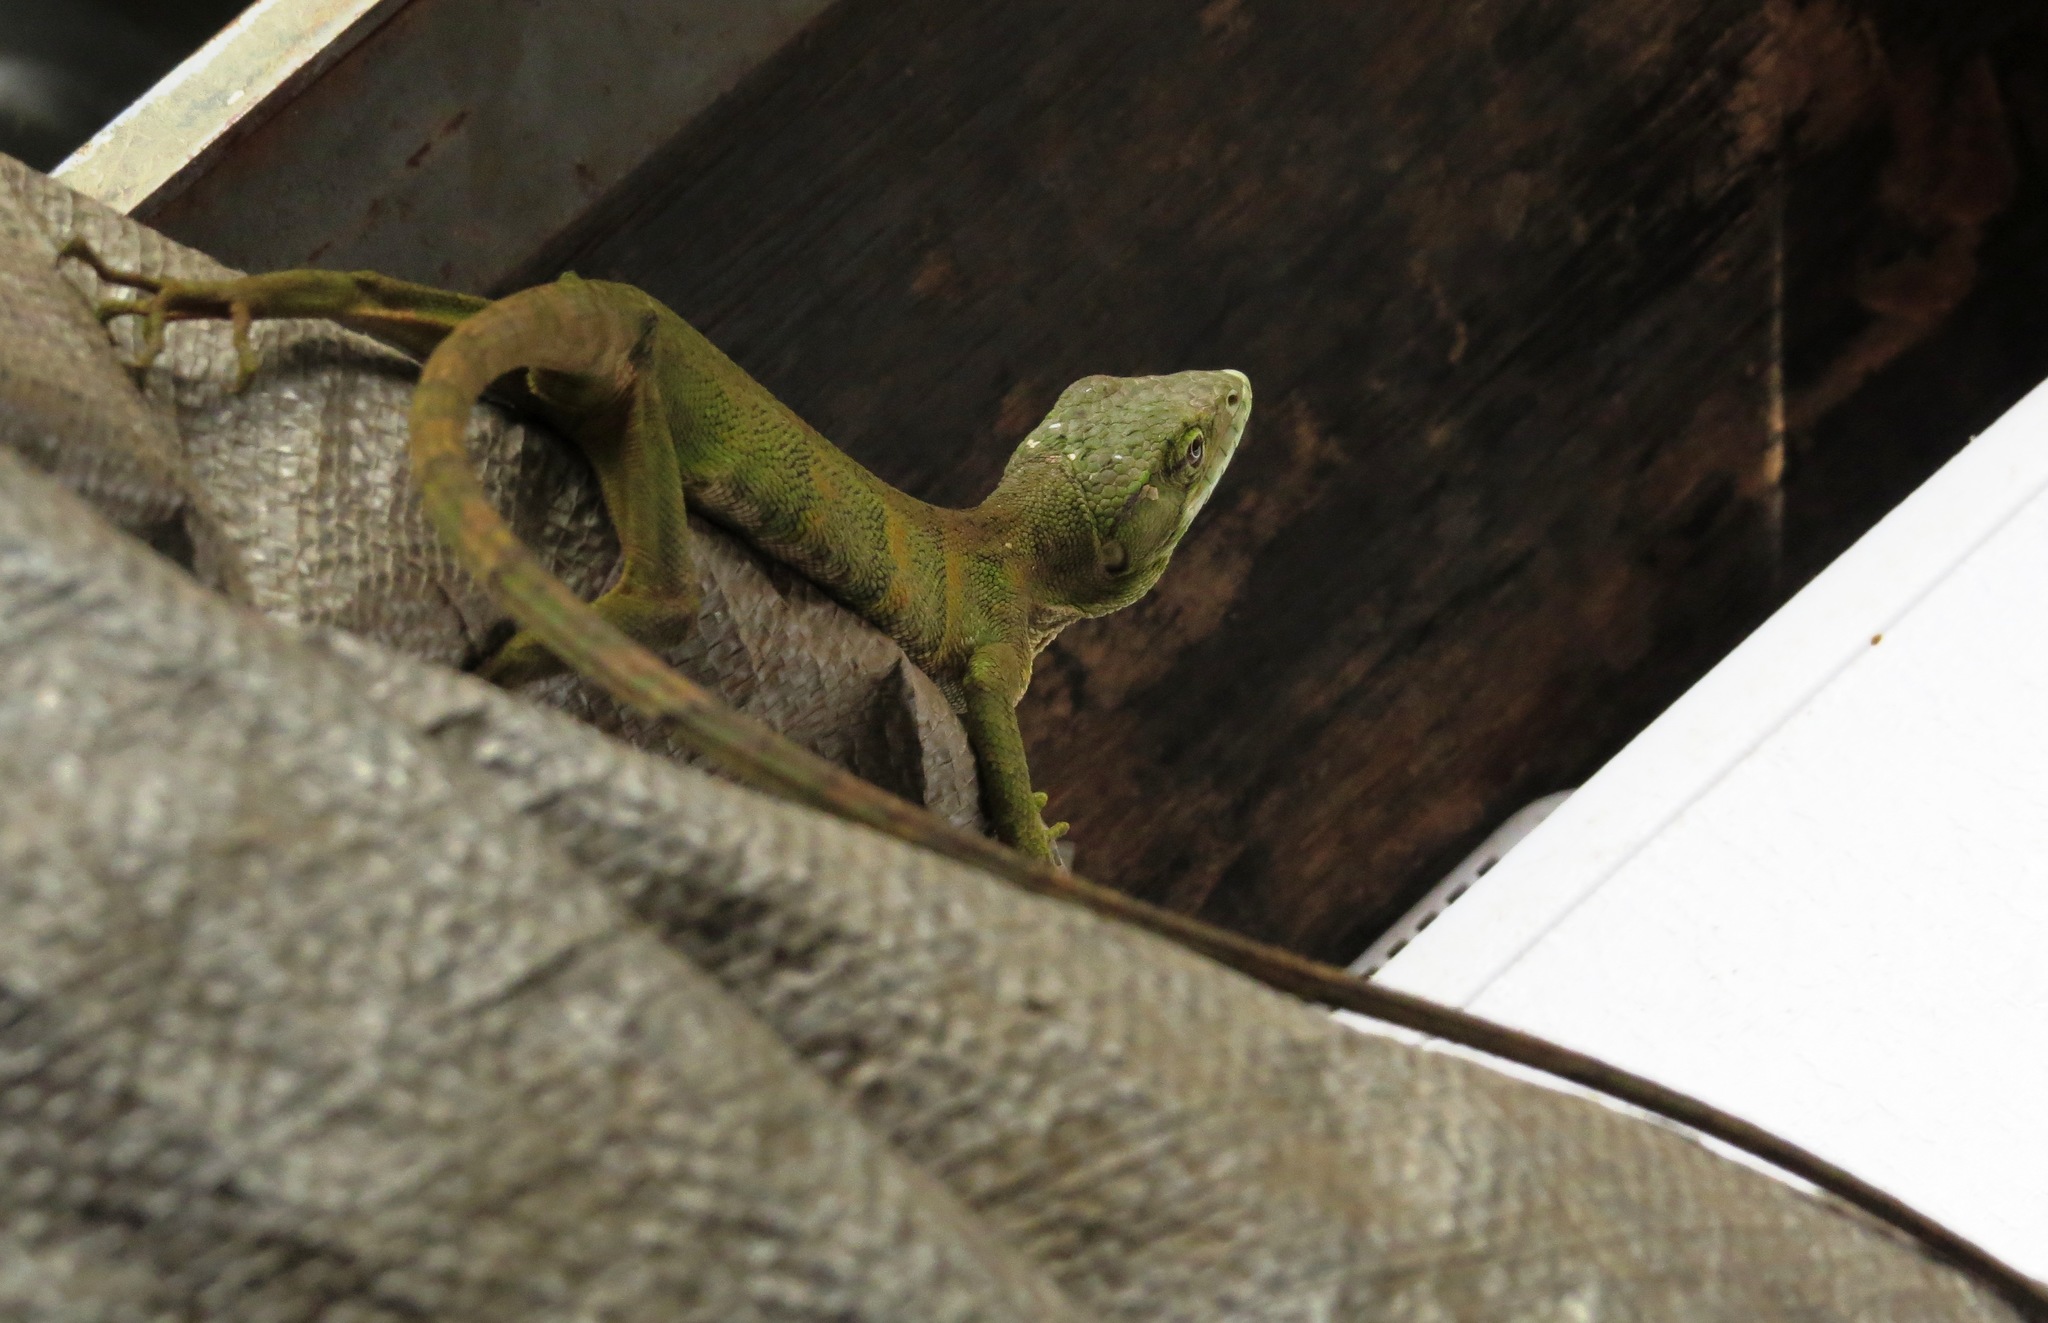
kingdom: Animalia
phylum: Chordata
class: Squamata
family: Polychrotidae
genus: Polychrus
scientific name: Polychrus marmoratus
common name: Many-colored bush anole
